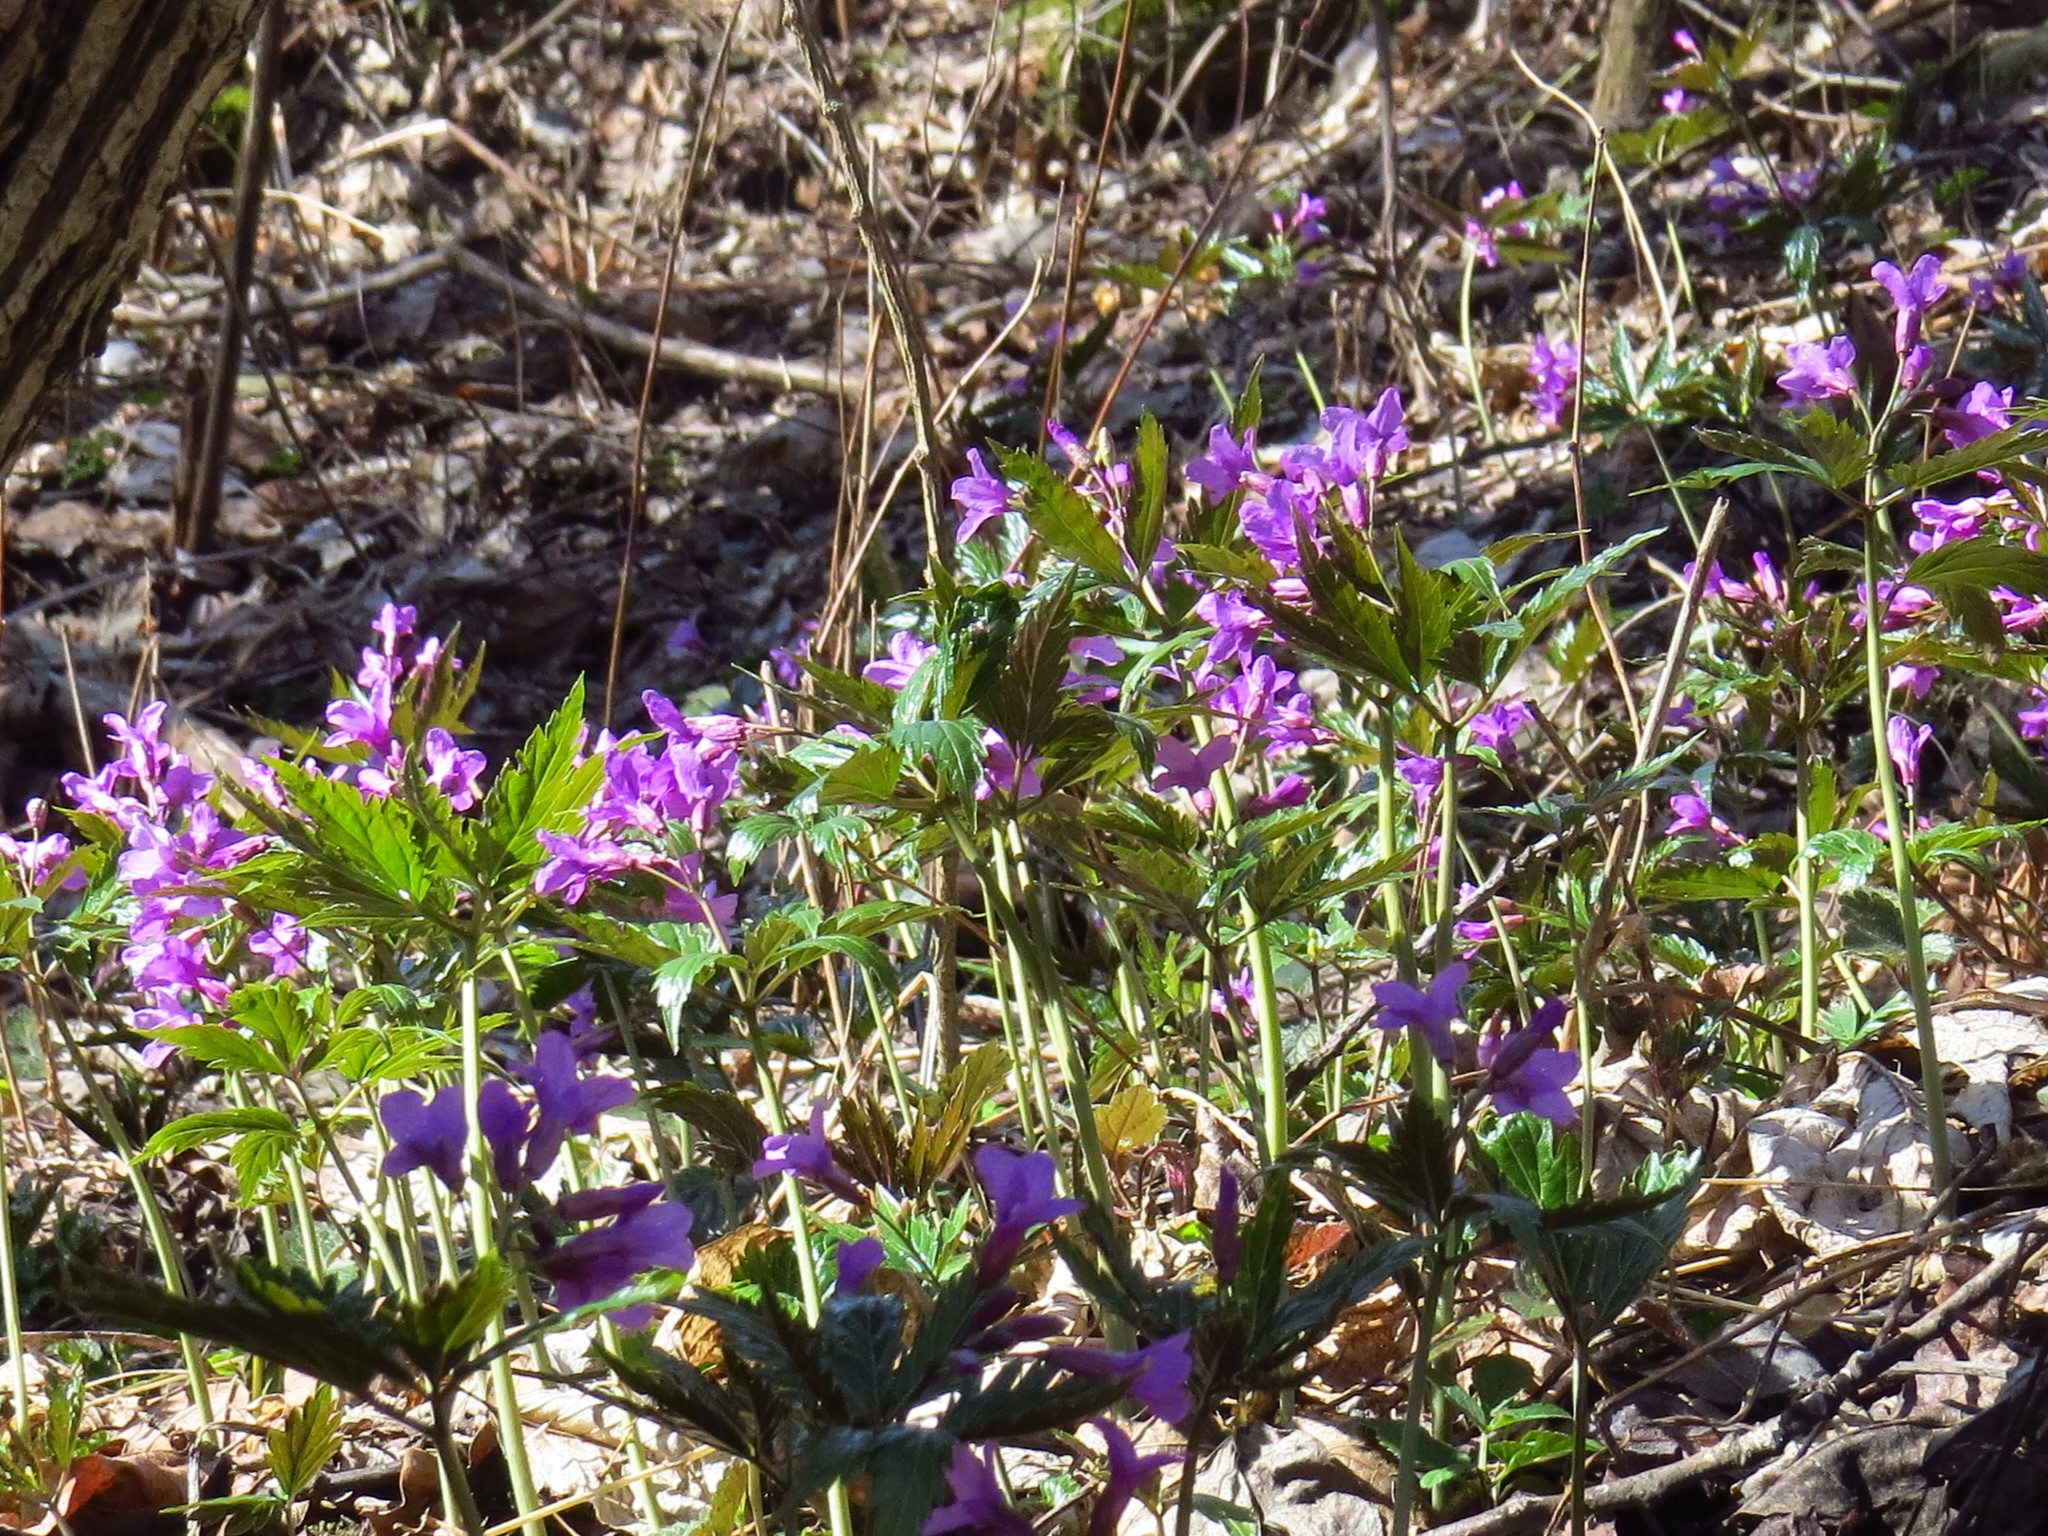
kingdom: Plantae
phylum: Tracheophyta
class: Magnoliopsida
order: Brassicales
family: Brassicaceae
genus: Cardamine
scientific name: Cardamine glanduligera
